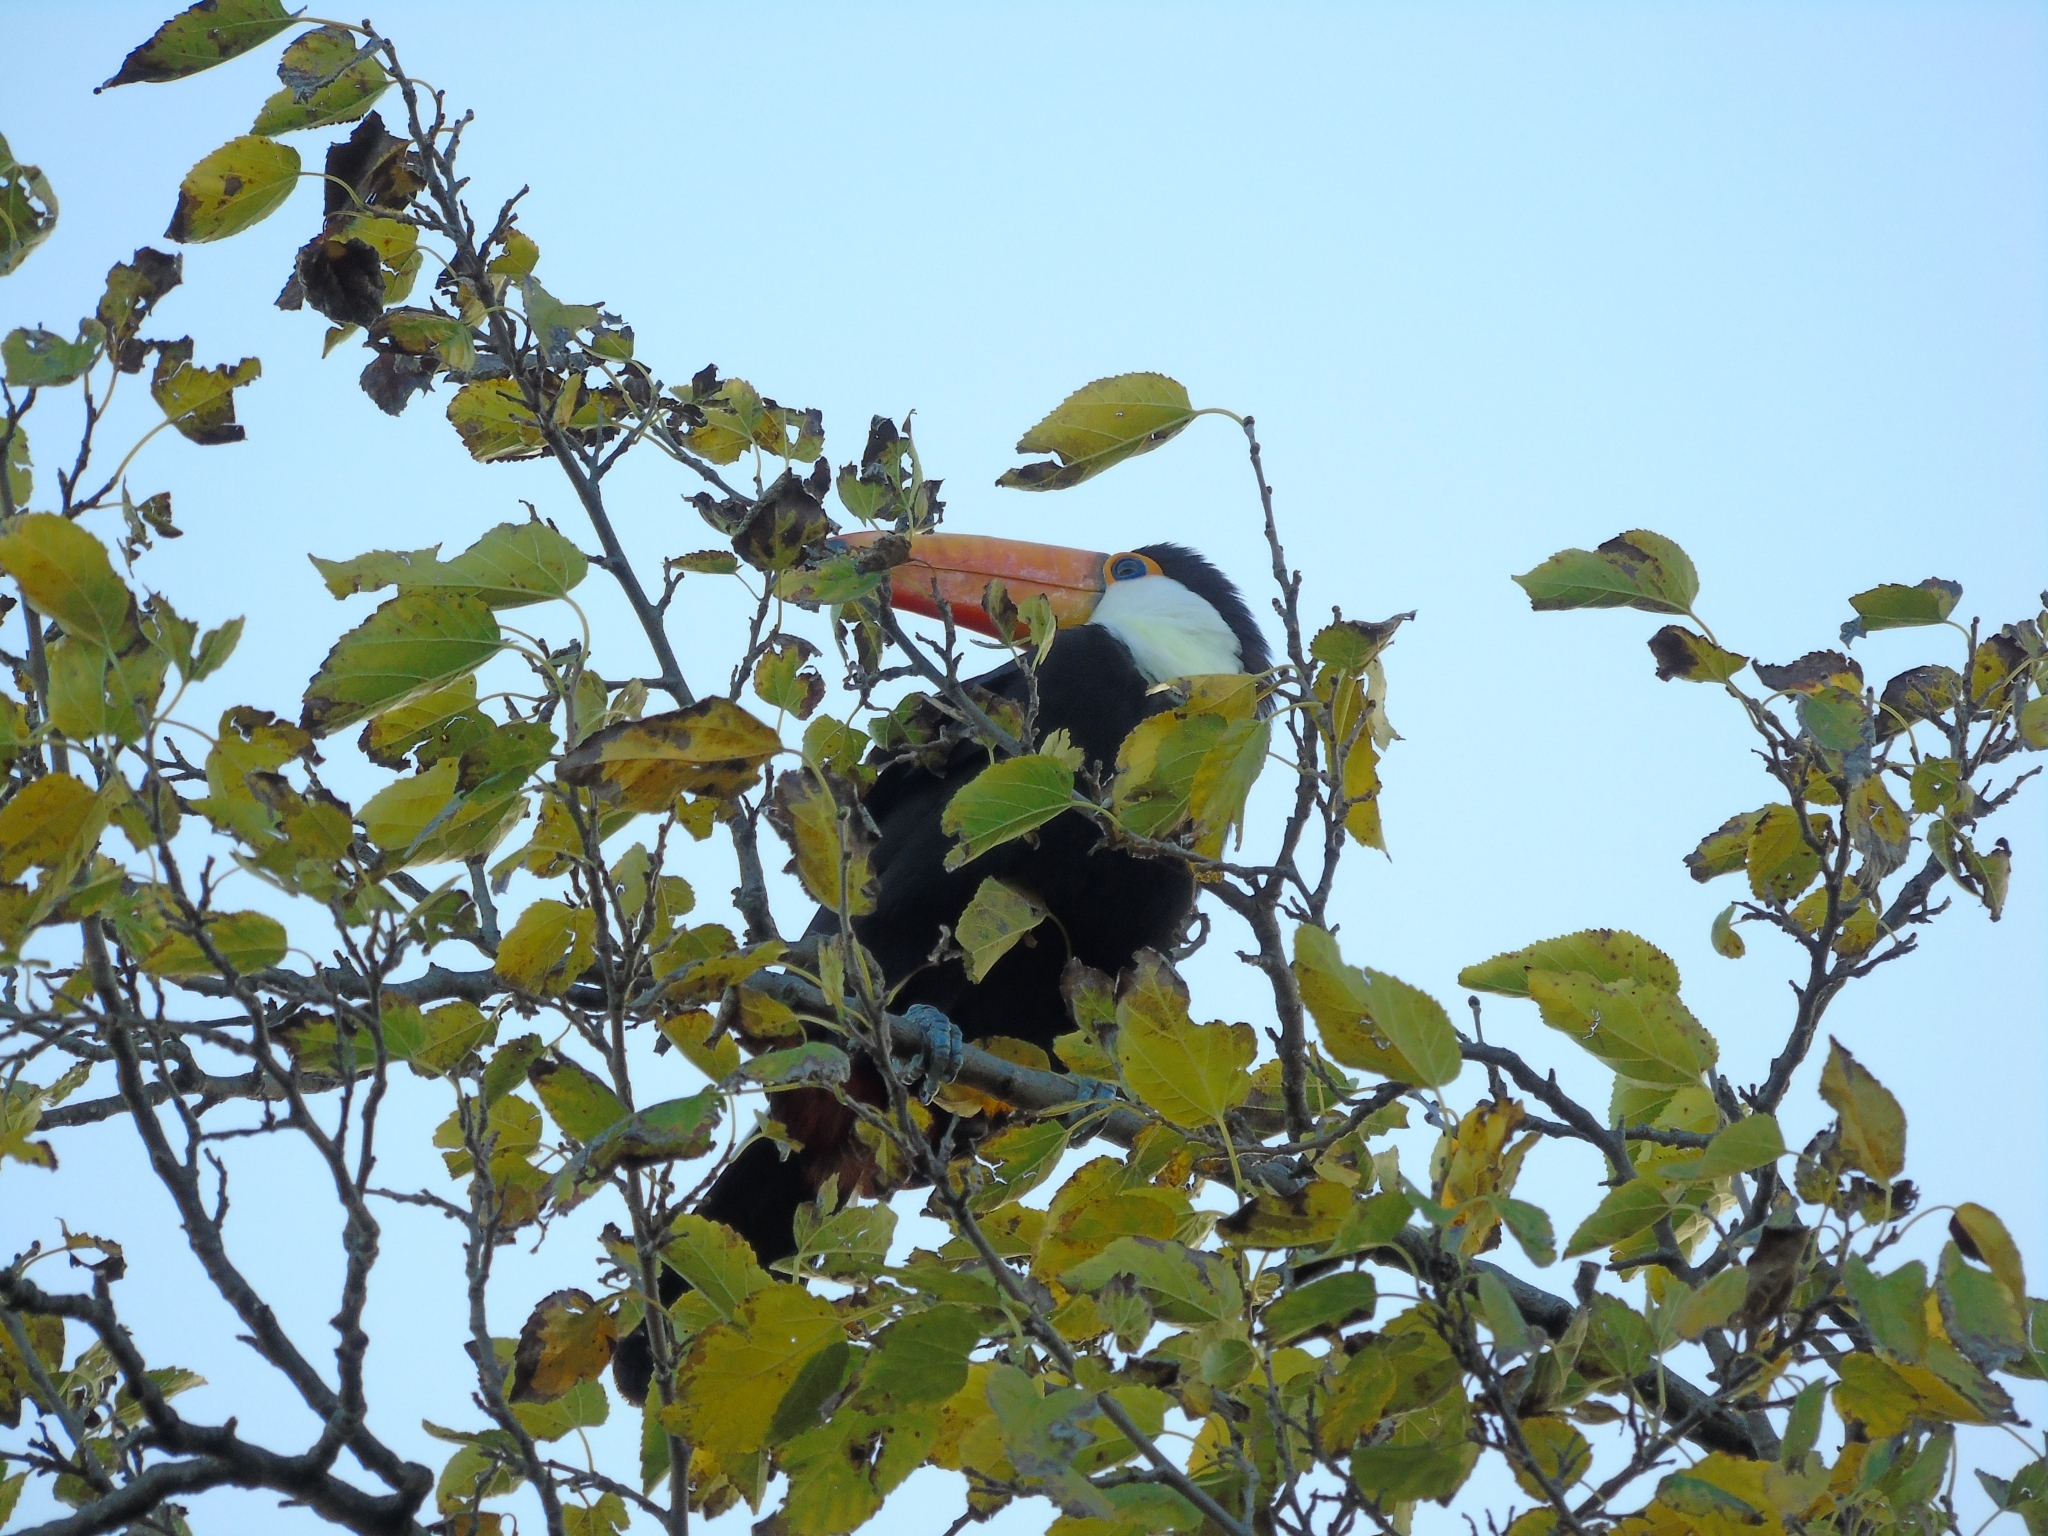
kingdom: Animalia
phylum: Chordata
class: Aves
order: Piciformes
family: Ramphastidae
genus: Ramphastos
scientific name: Ramphastos toco
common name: Toco toucan
